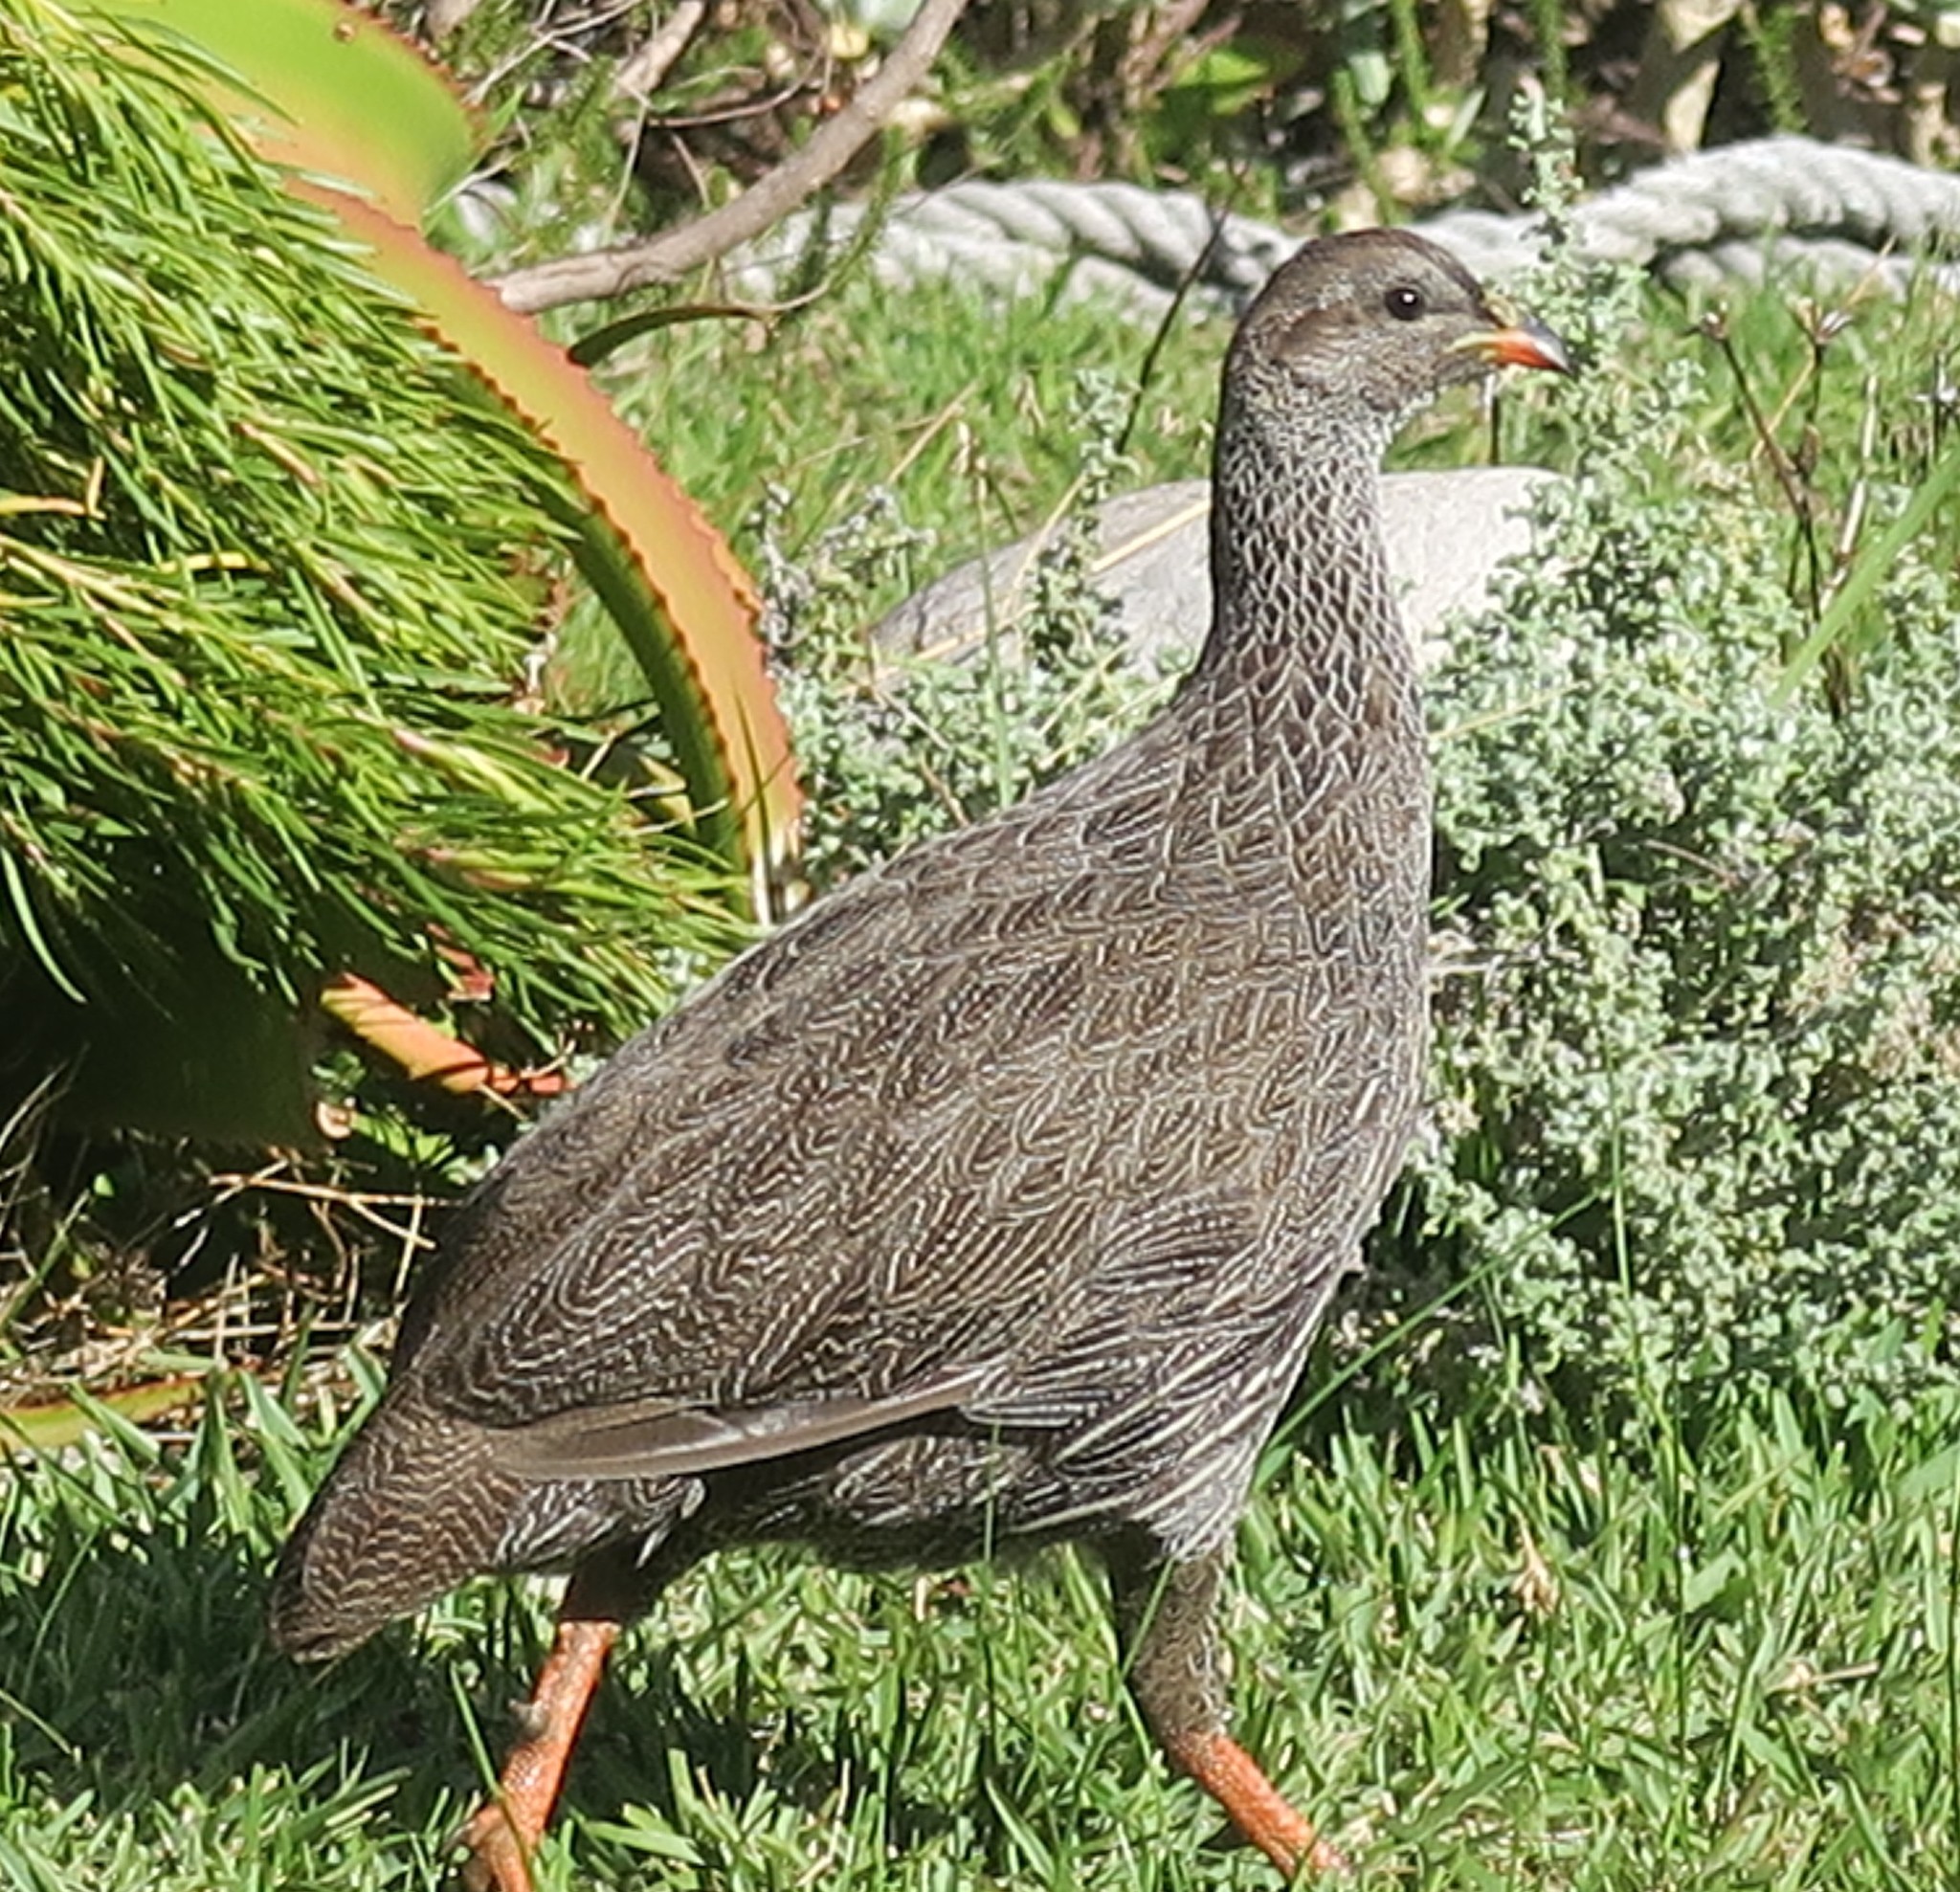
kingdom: Animalia
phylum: Chordata
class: Aves
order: Galliformes
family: Phasianidae
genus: Pternistis
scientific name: Pternistis capensis
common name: Cape spurfowl
